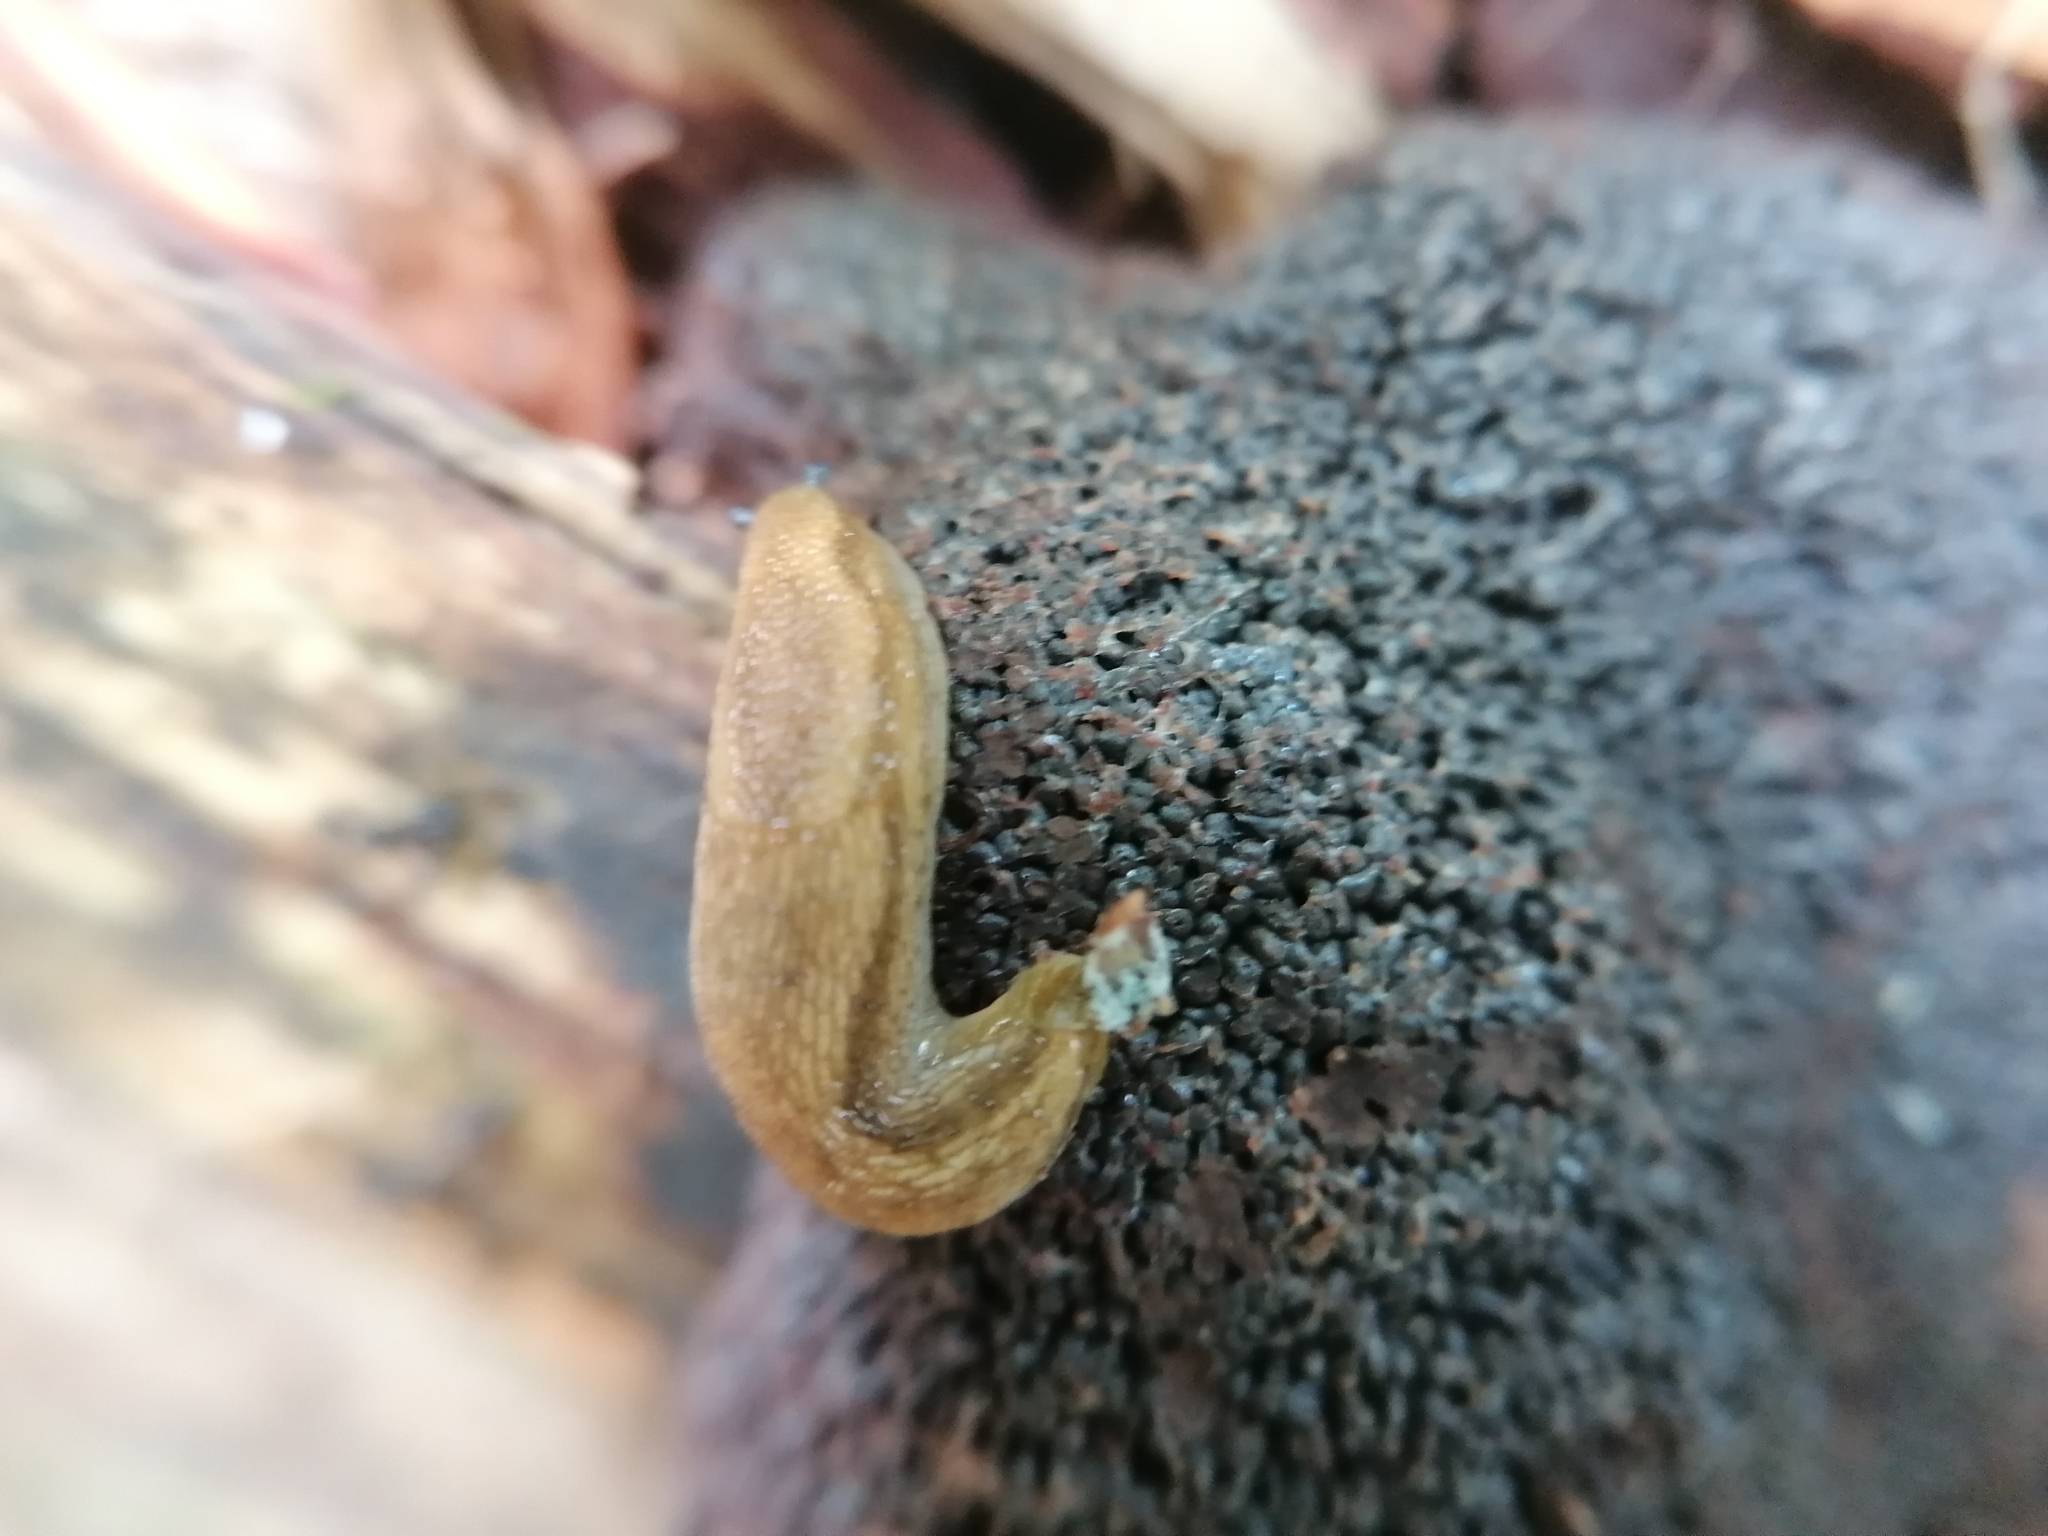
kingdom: Animalia
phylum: Mollusca
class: Gastropoda
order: Stylommatophora
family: Arionidae
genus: Arion
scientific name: Arion subfuscus
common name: Dusky arion
